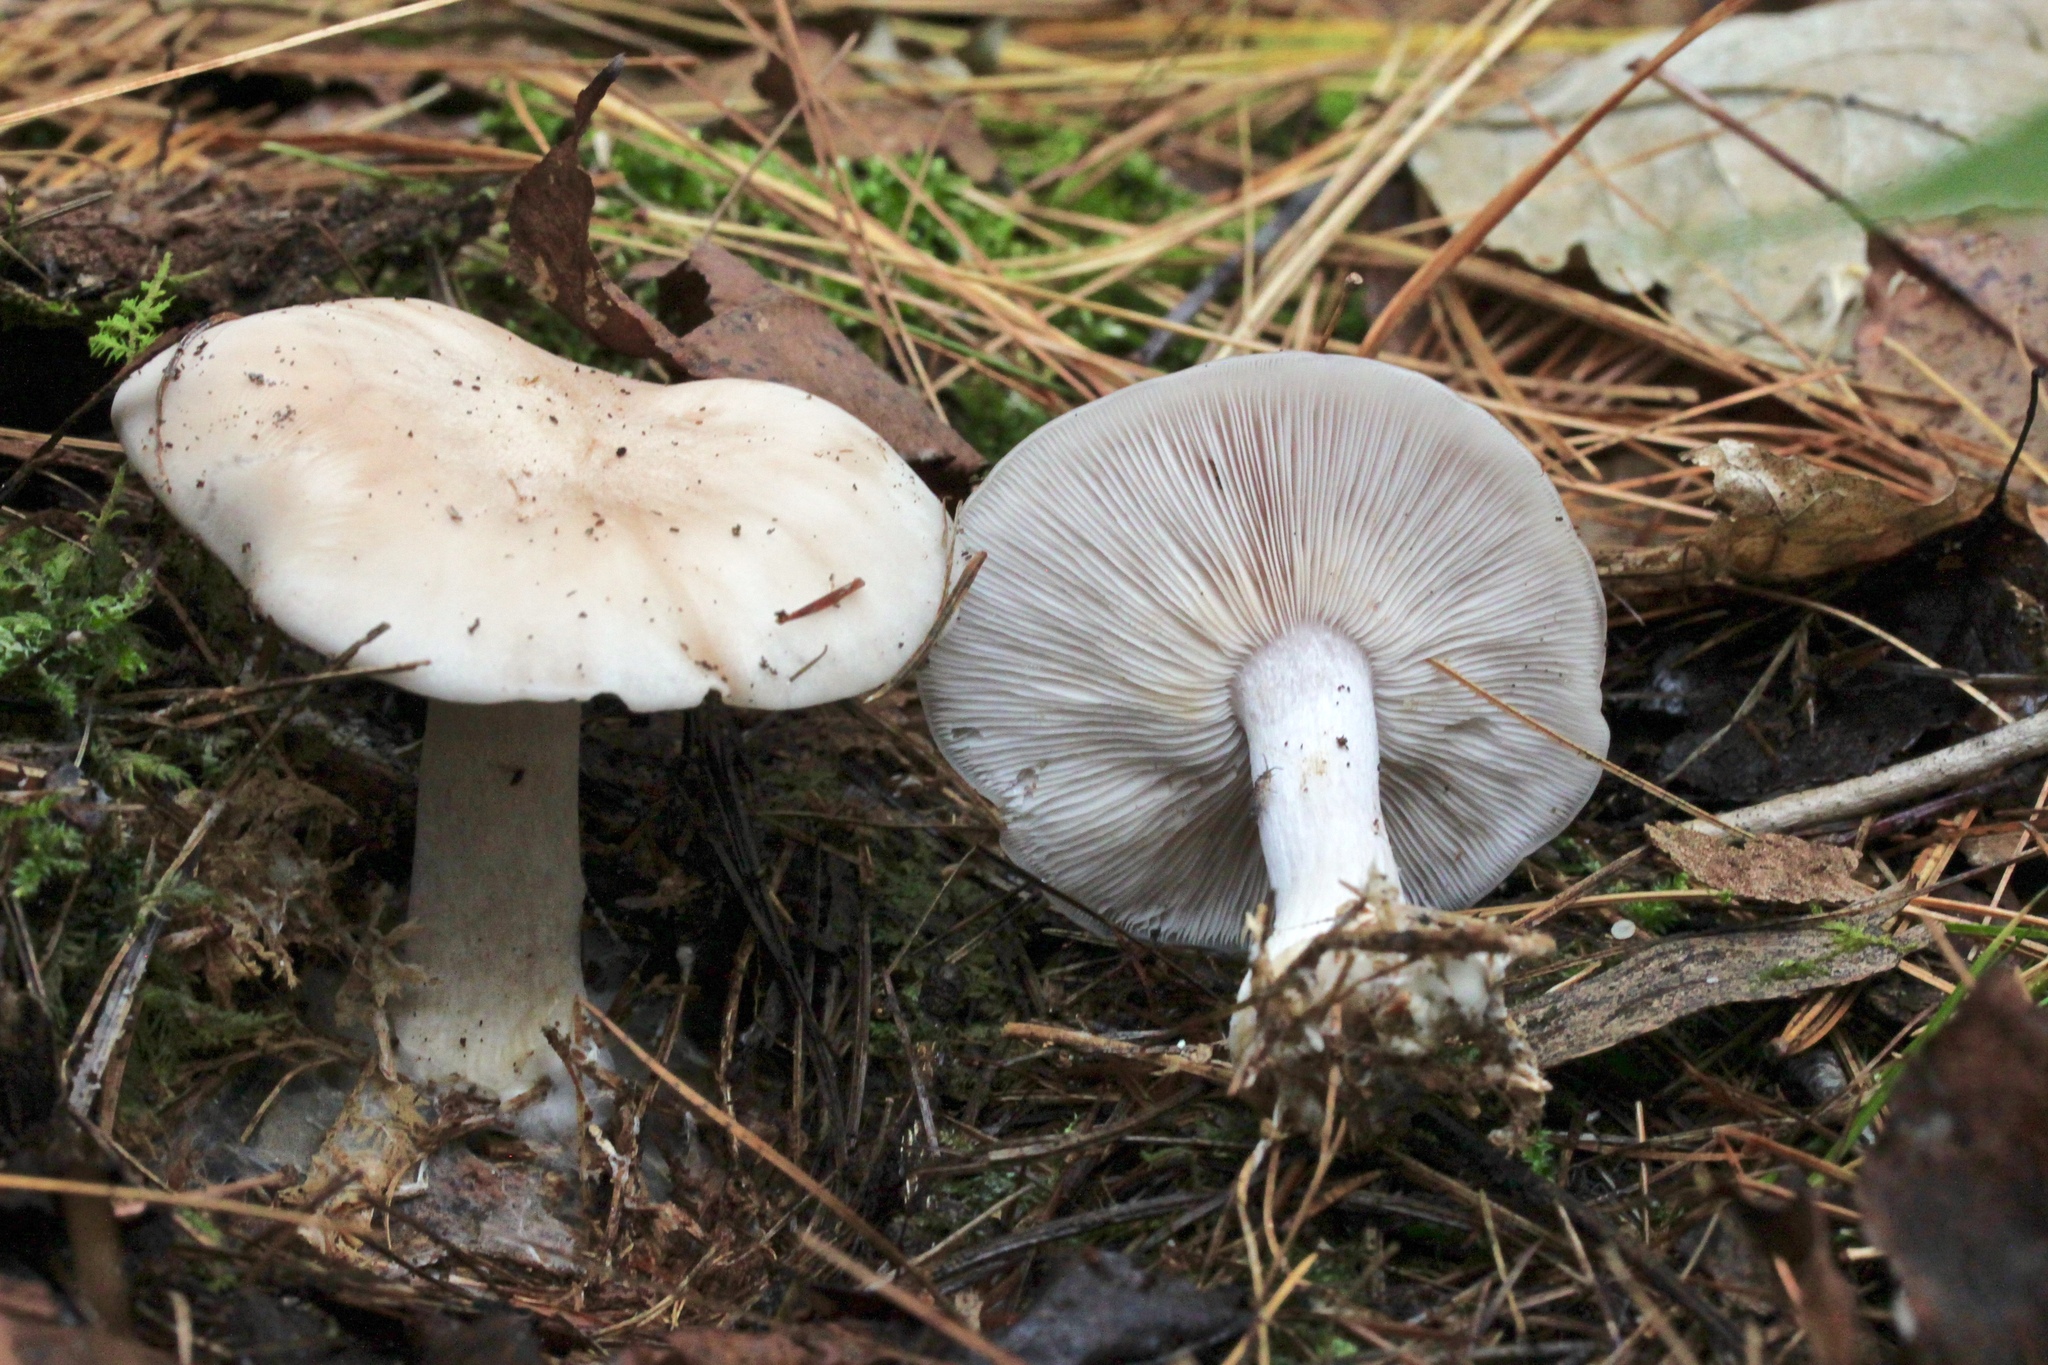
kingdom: Fungi
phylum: Basidiomycota
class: Agaricomycetes
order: Agaricales
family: Tricholomataceae
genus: Collybia
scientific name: Collybia
